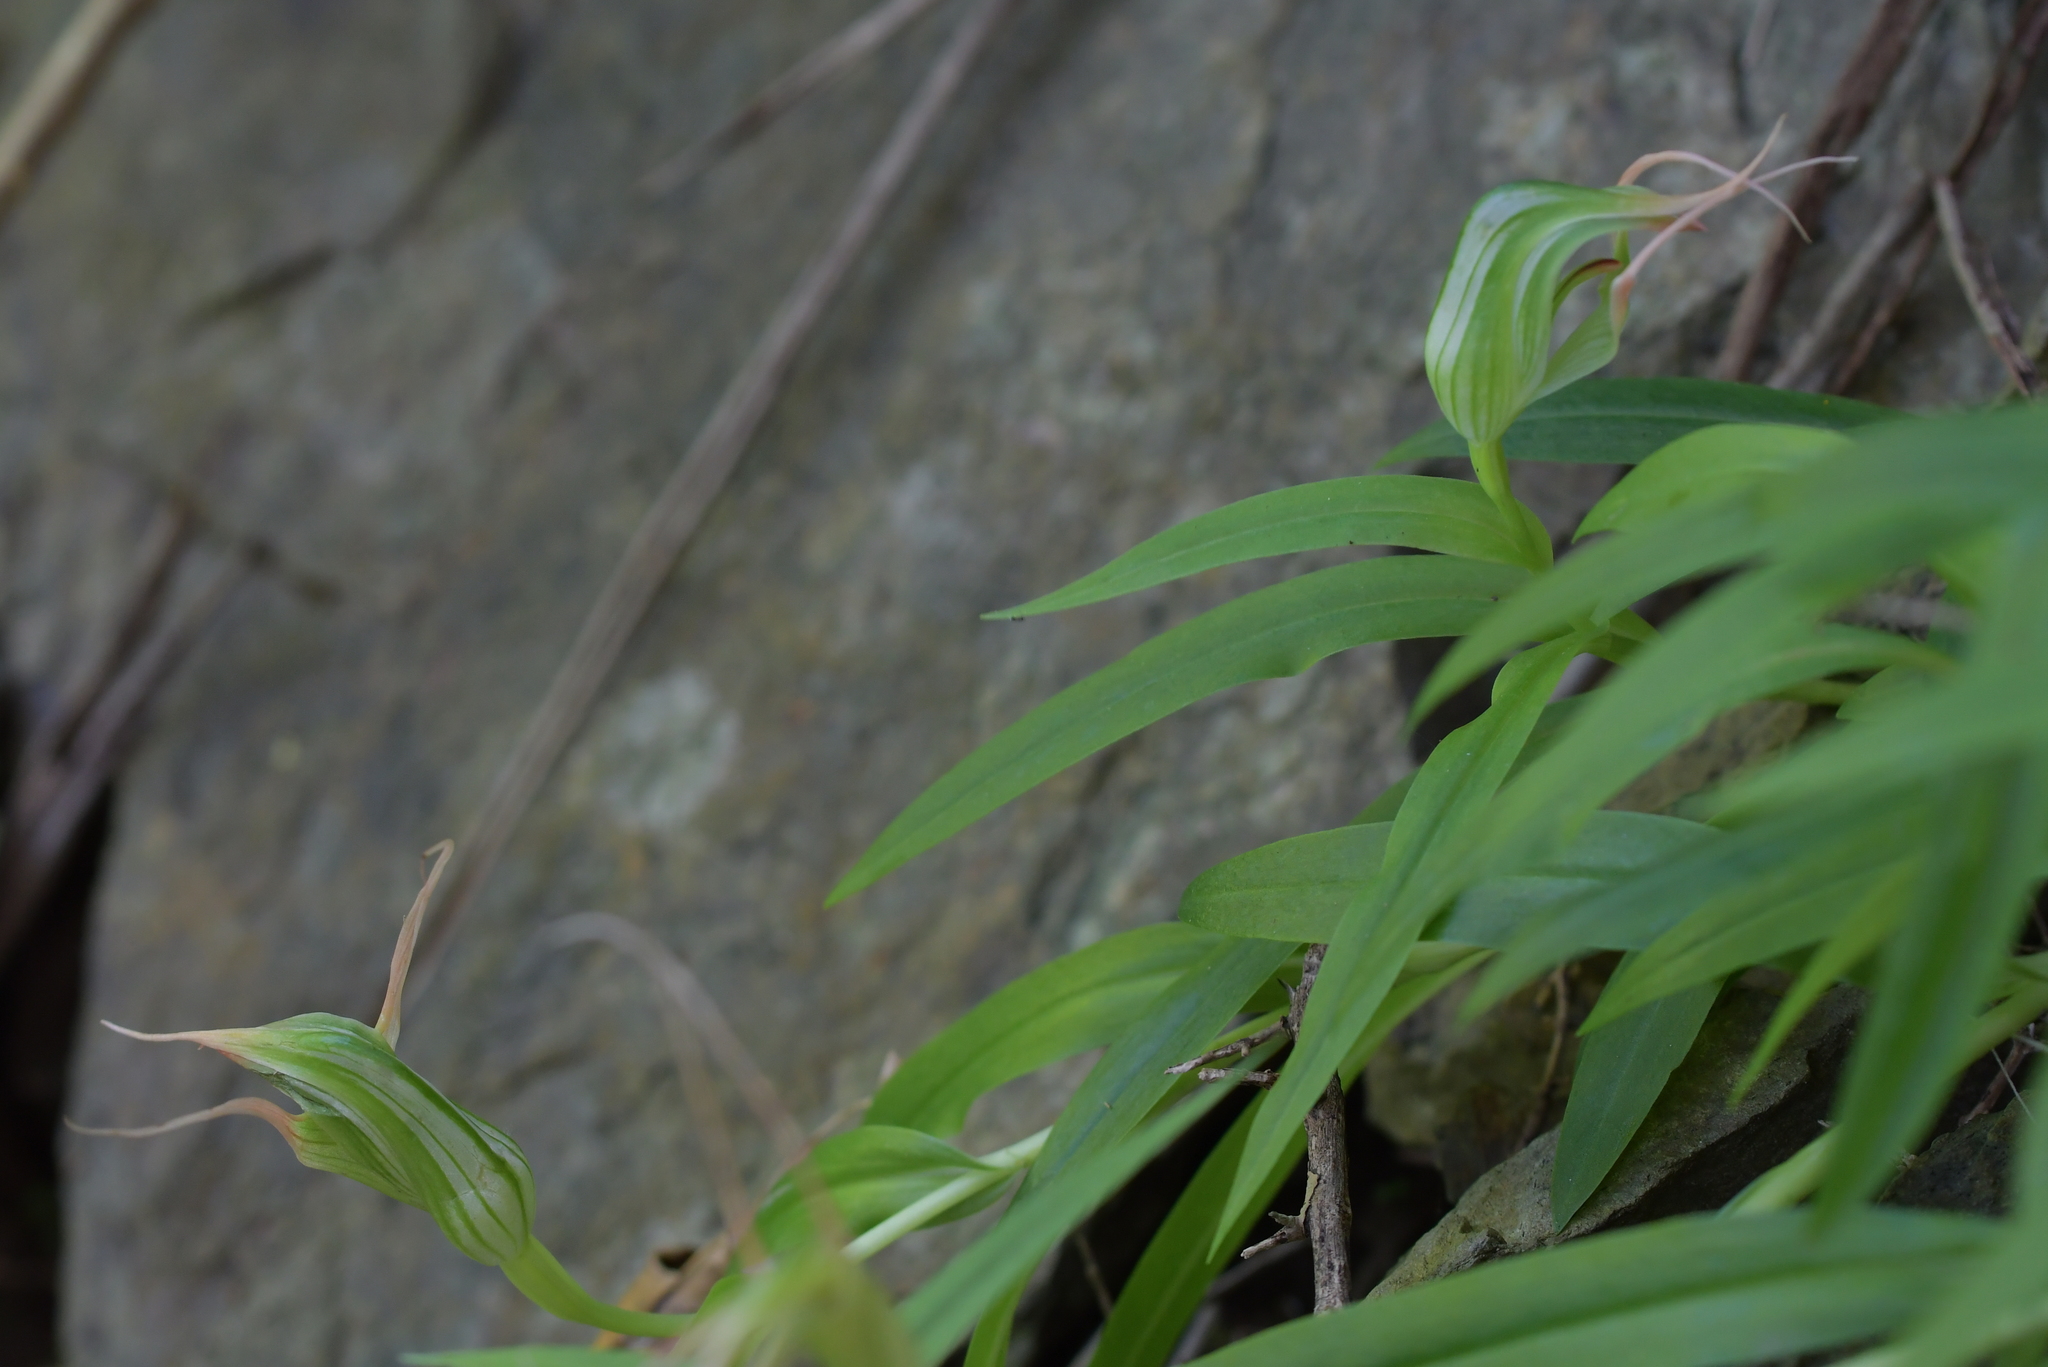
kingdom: Plantae
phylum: Tracheophyta
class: Liliopsida
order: Asparagales
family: Orchidaceae
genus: Pterostylis
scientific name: Pterostylis banksii
